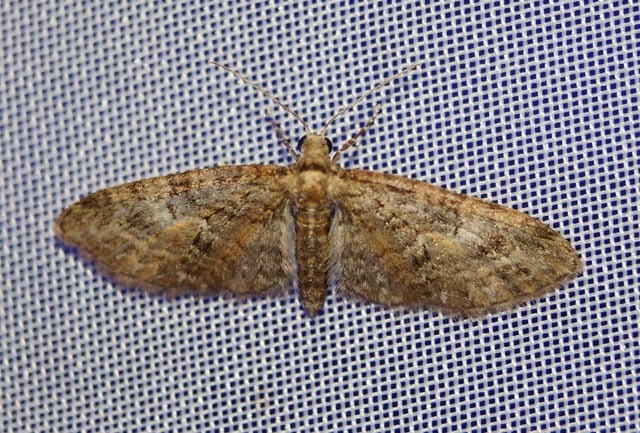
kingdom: Animalia
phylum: Arthropoda
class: Insecta
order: Lepidoptera
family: Geometridae
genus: Eupithecia
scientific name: Eupithecia abbreviata
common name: Brindled pug
